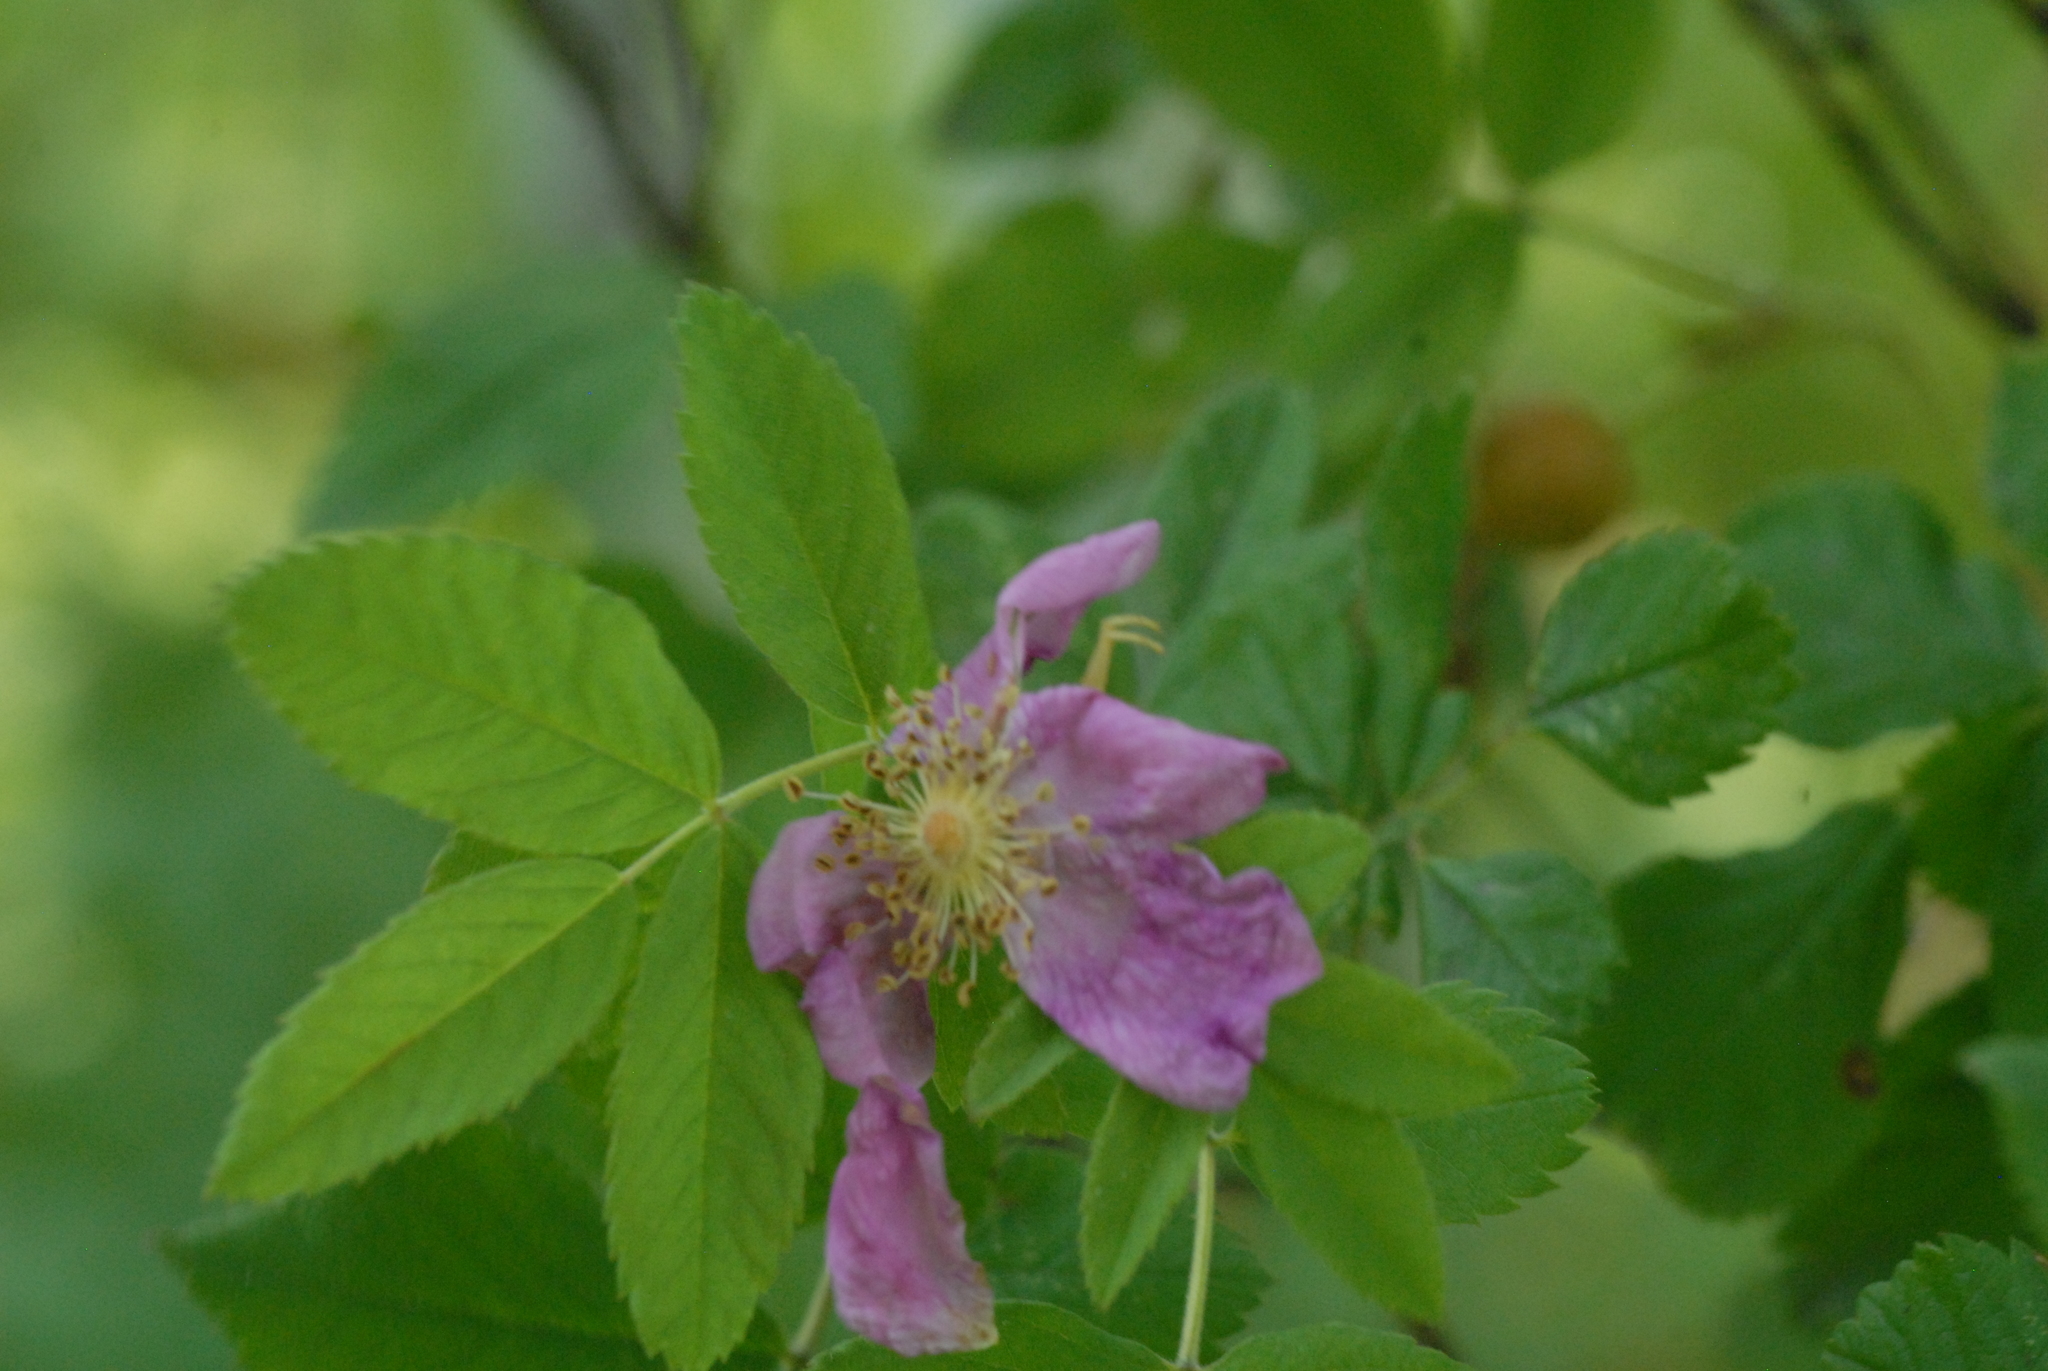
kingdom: Plantae
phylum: Tracheophyta
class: Magnoliopsida
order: Rosales
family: Rosaceae
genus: Rosa
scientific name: Rosa
